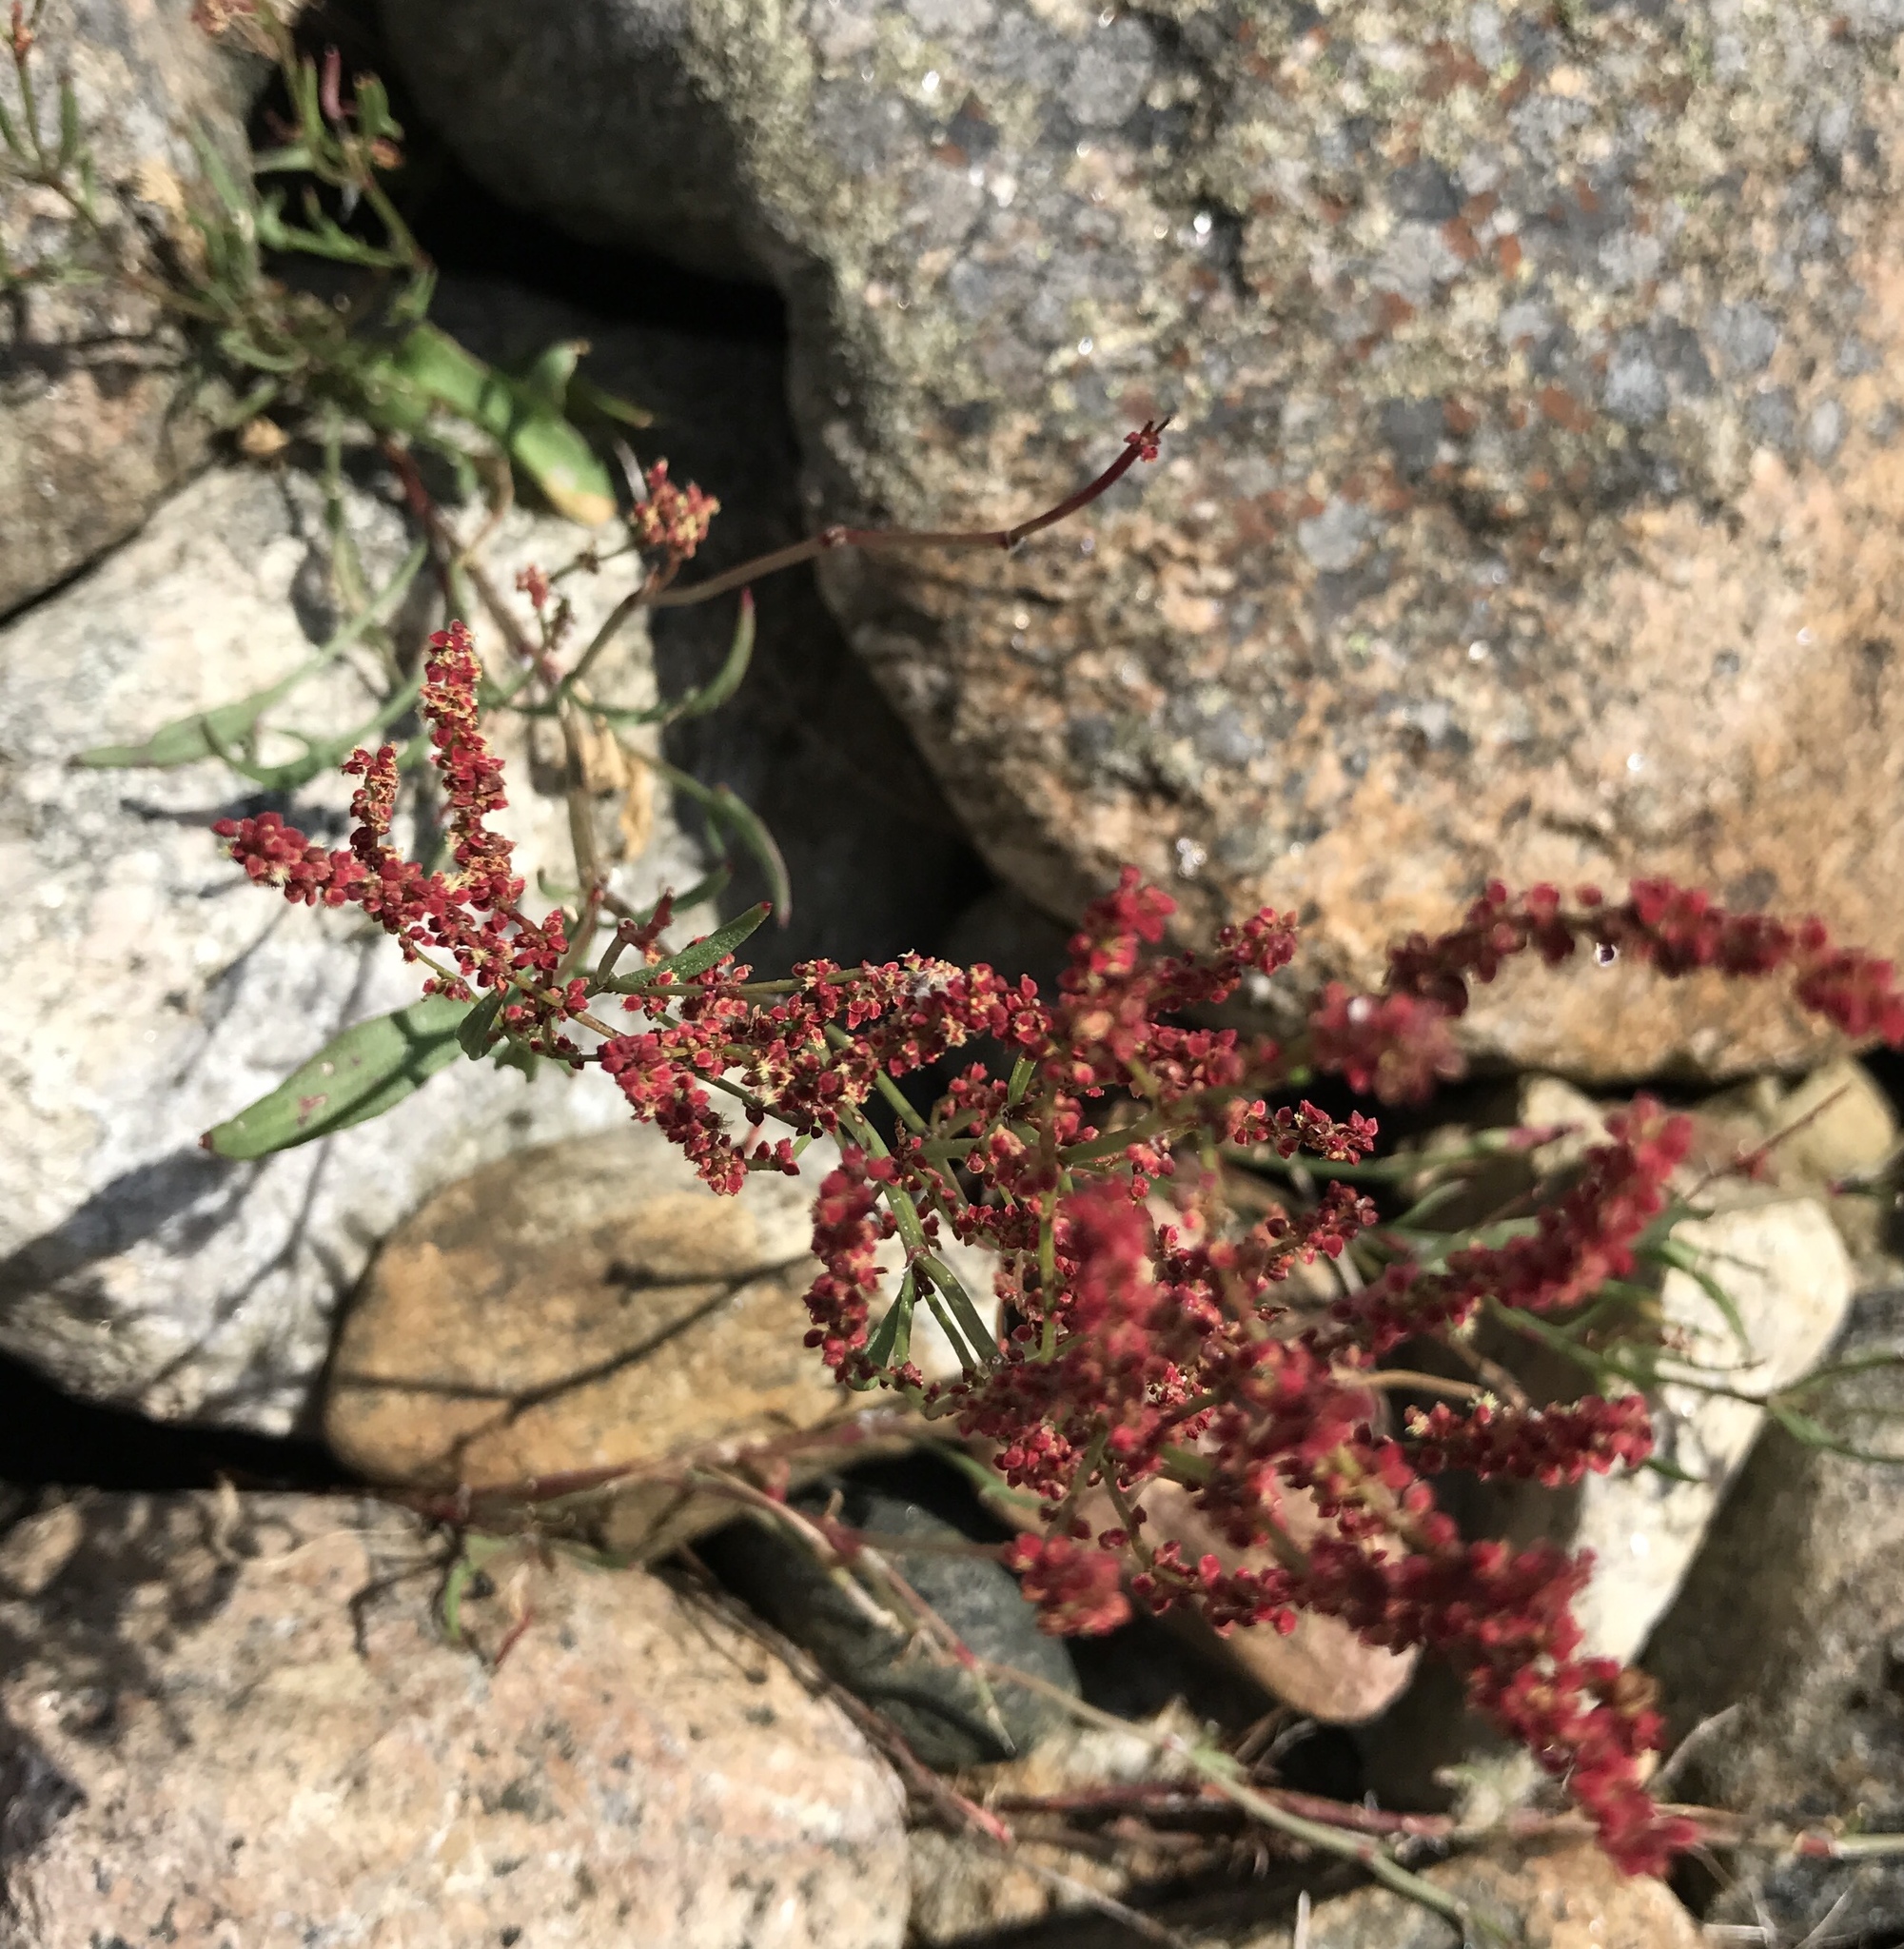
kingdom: Plantae
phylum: Tracheophyta
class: Magnoliopsida
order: Caryophyllales
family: Polygonaceae
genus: Rumex
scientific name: Rumex acetosella
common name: Common sheep sorrel
